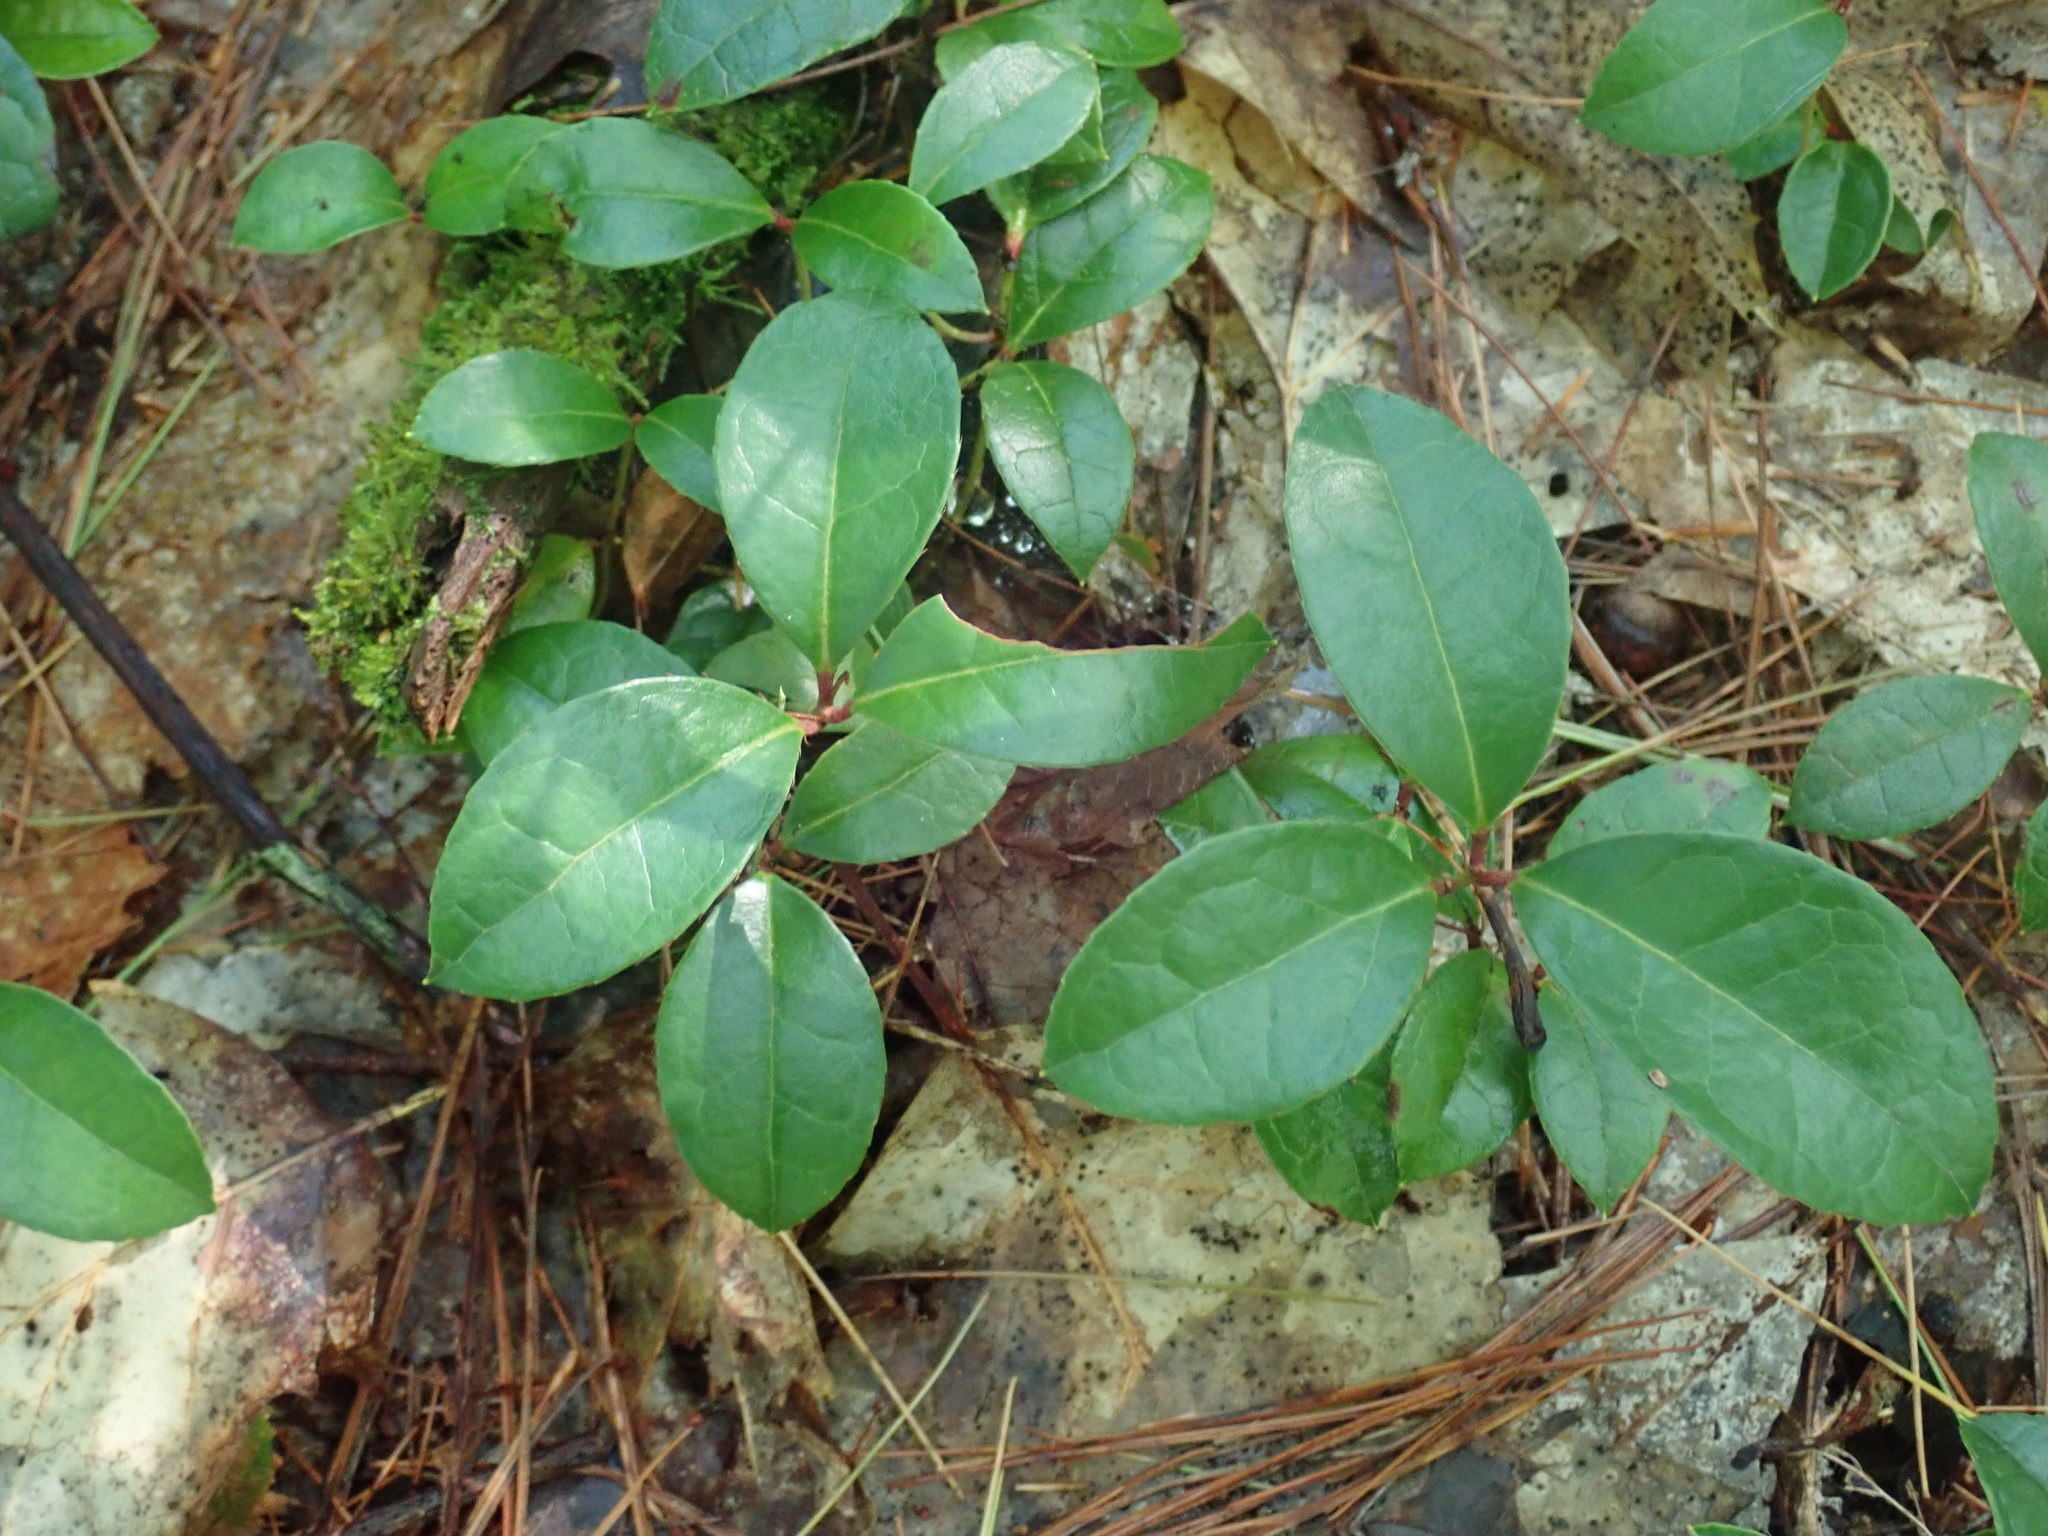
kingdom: Plantae
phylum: Tracheophyta
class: Magnoliopsida
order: Ericales
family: Ericaceae
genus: Gaultheria
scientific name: Gaultheria procumbens
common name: Checkerberry
